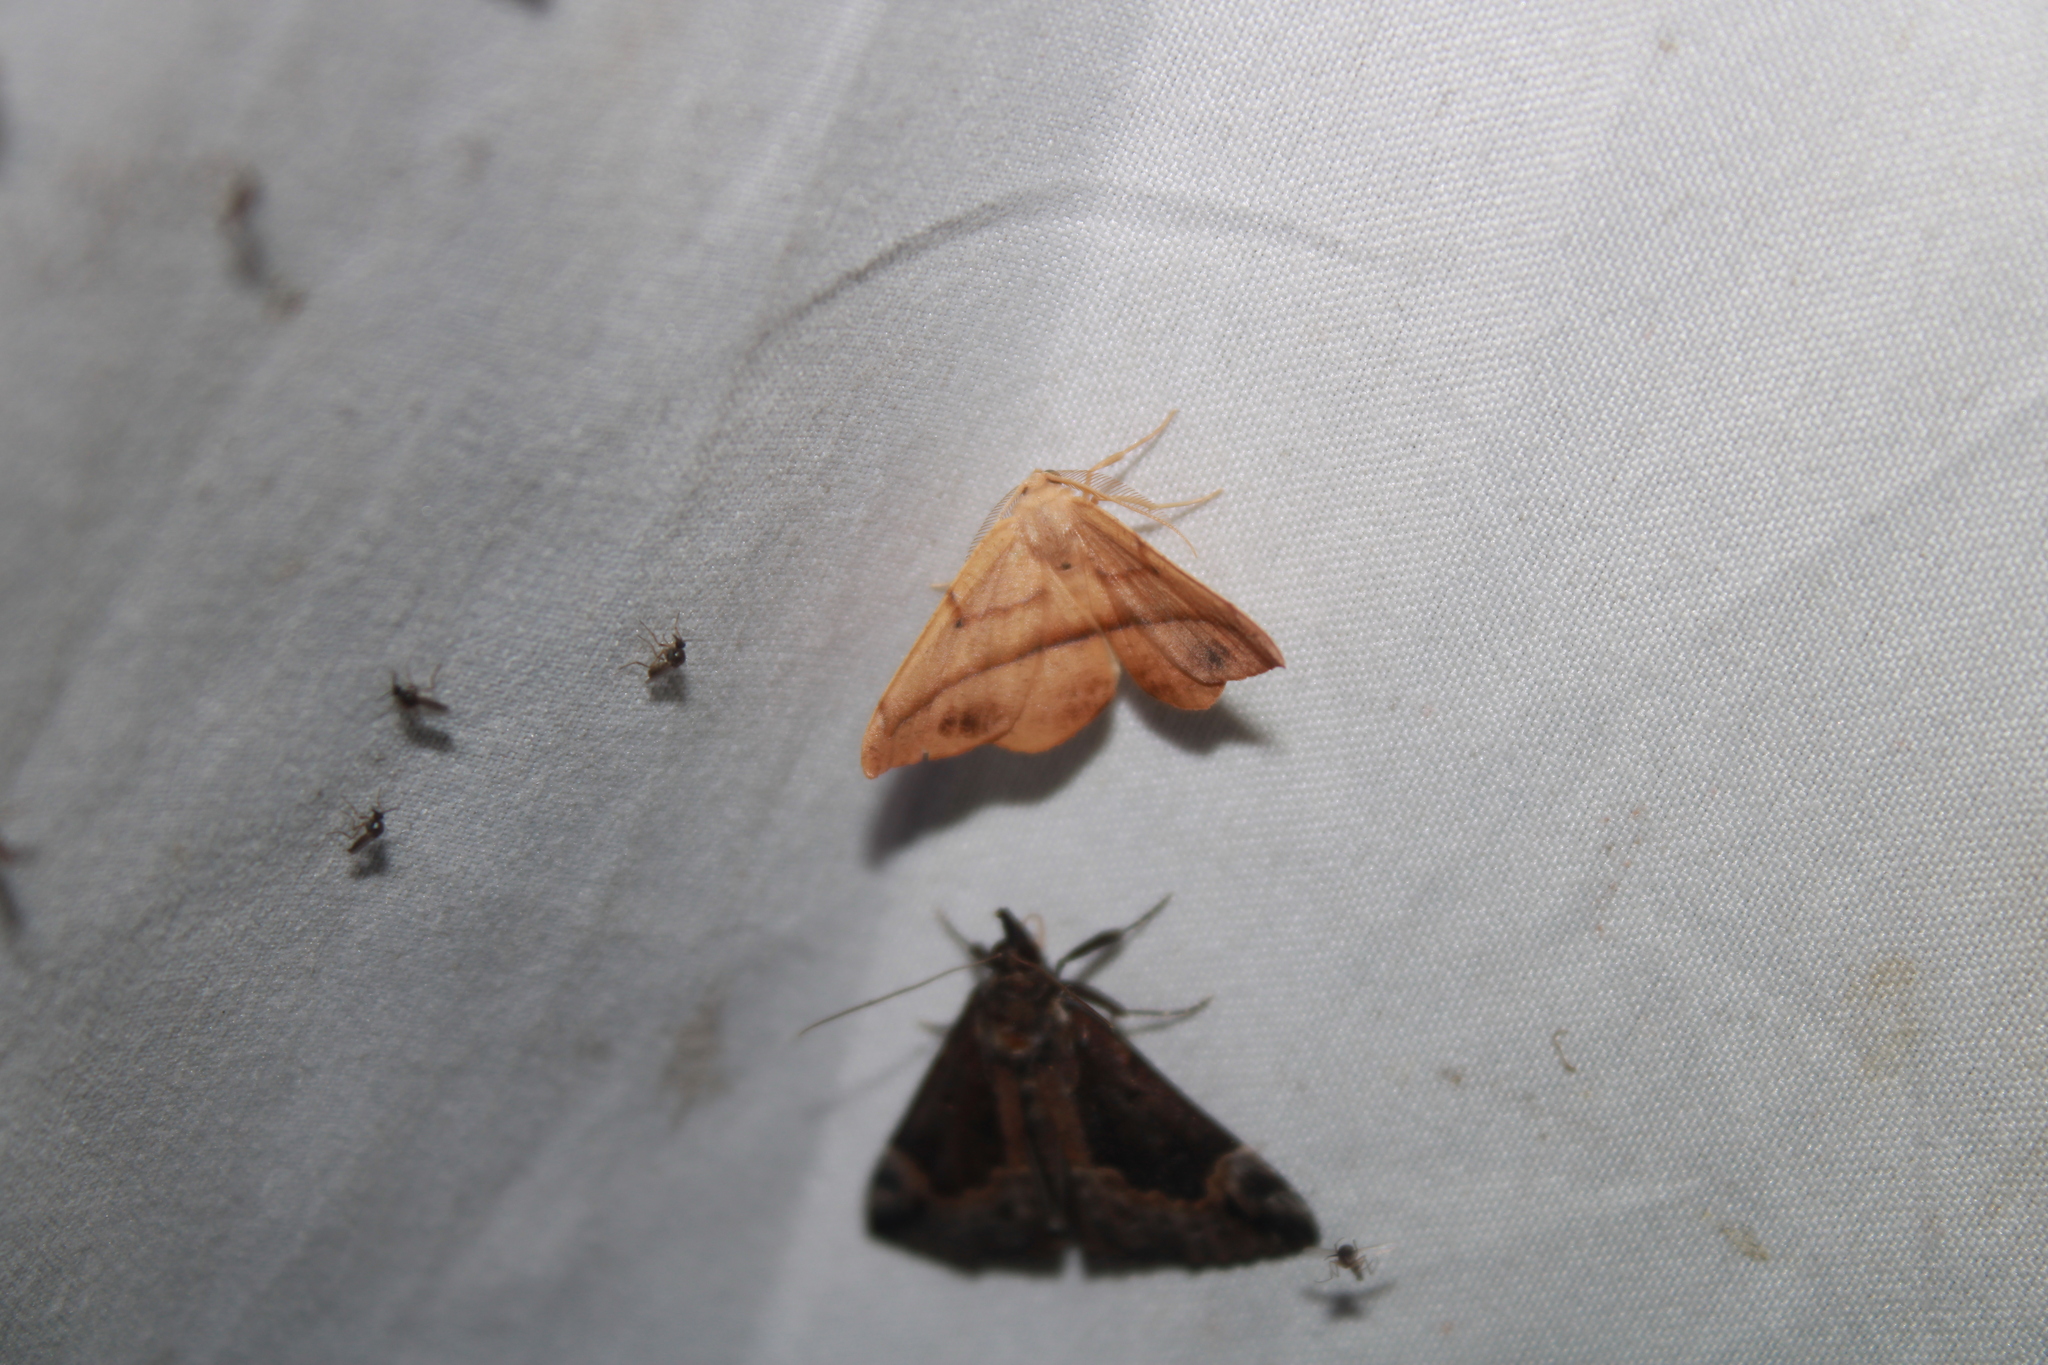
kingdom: Animalia
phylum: Arthropoda
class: Insecta
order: Lepidoptera
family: Geometridae
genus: Patalene
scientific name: Patalene olyzonaria
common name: Juniper geometer moth
